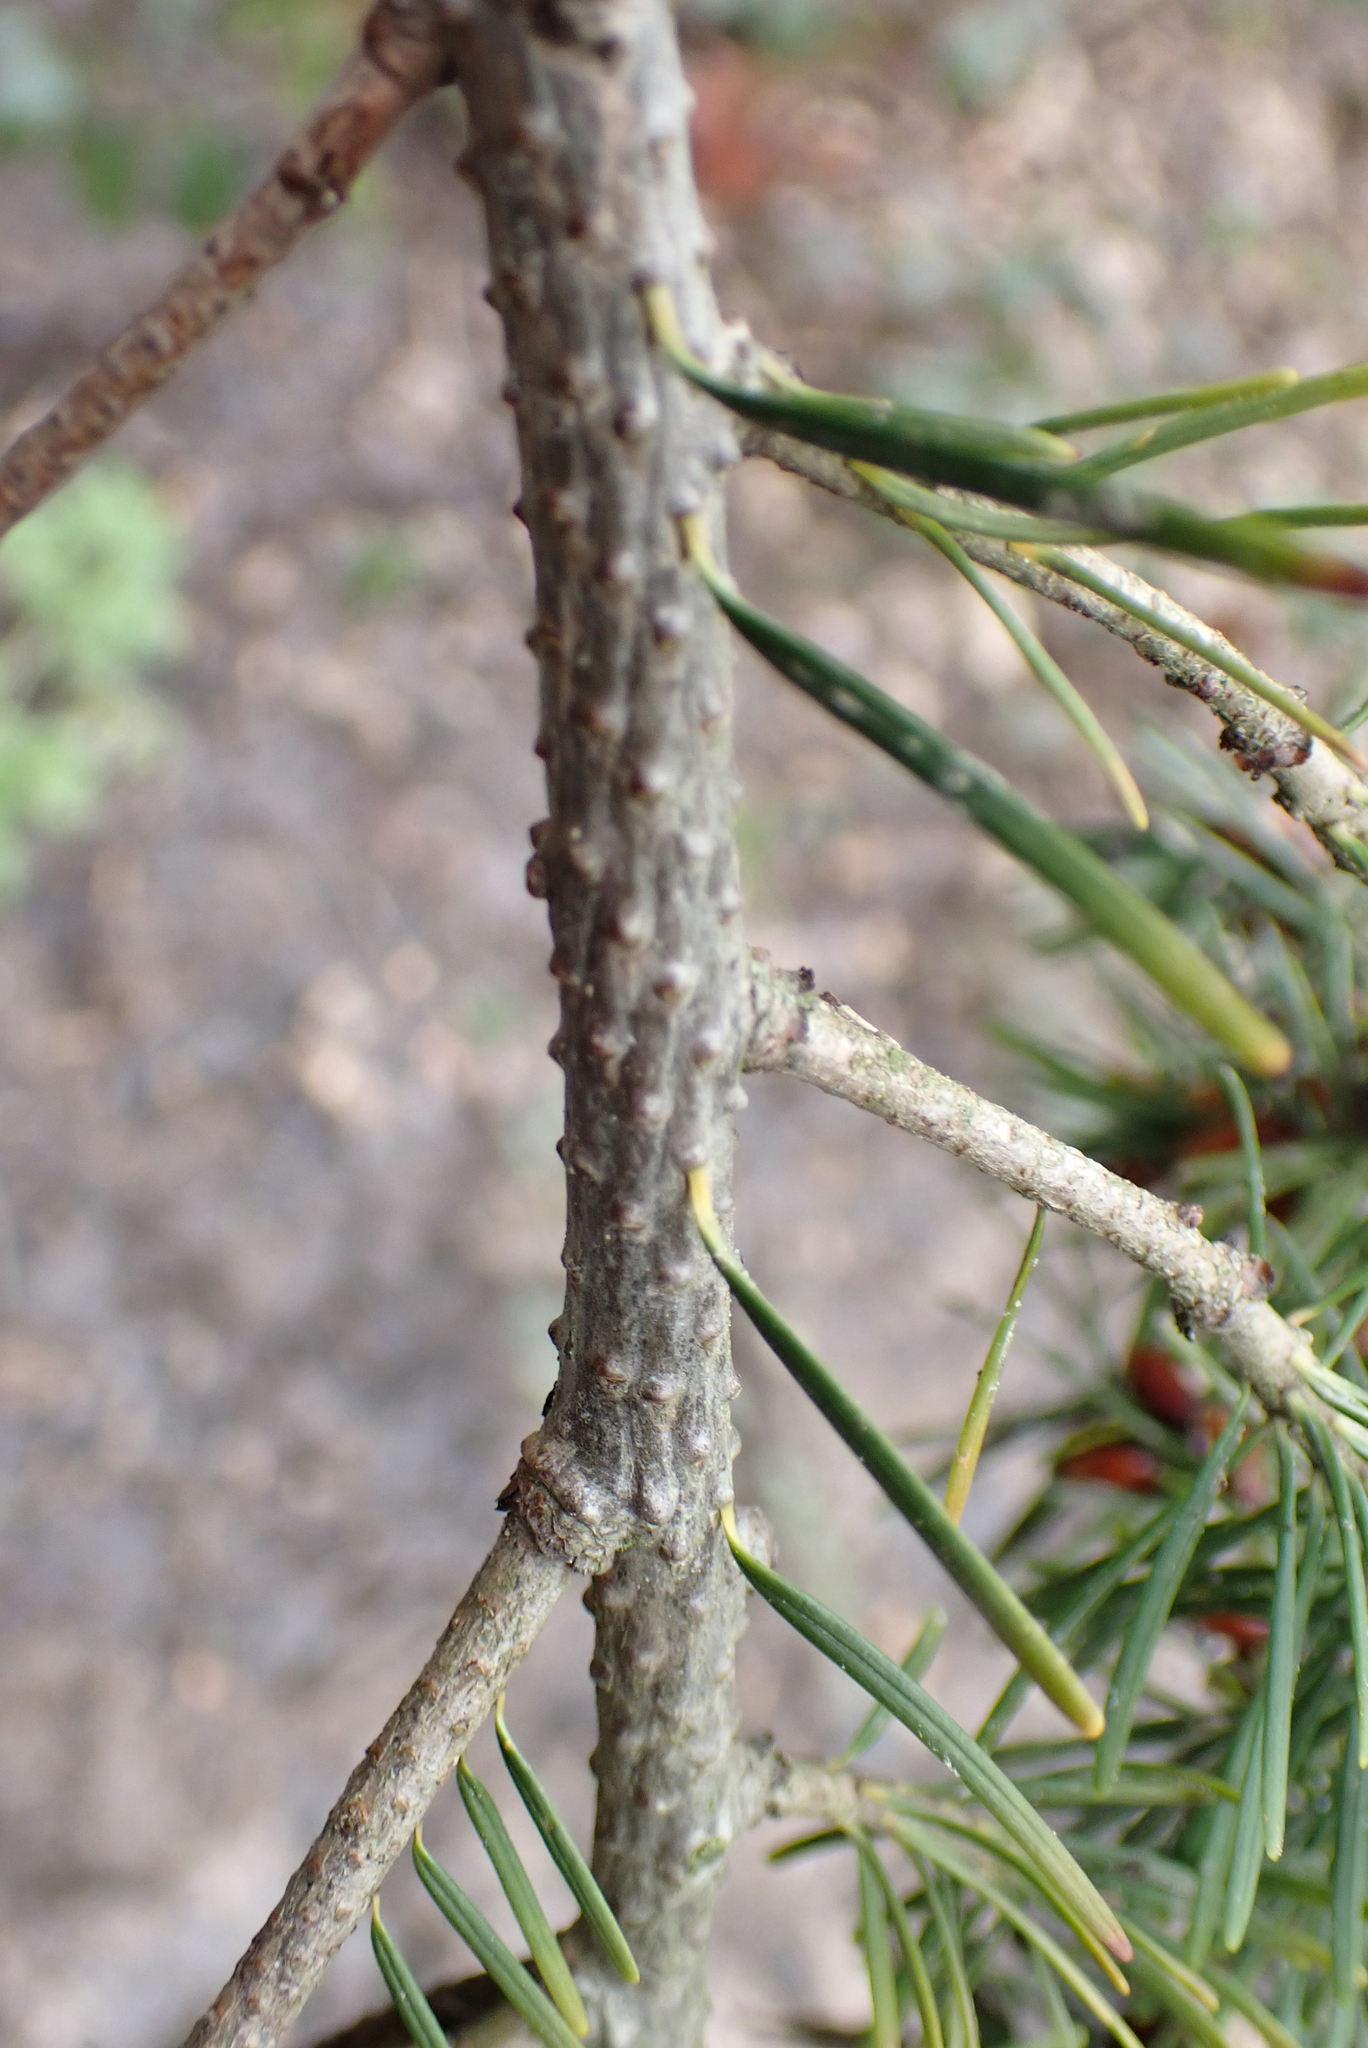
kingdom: Plantae
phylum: Tracheophyta
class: Pinopsida
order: Pinales
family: Pinaceae
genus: Pseudotsuga
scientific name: Pseudotsuga menziesii
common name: Douglas fir
